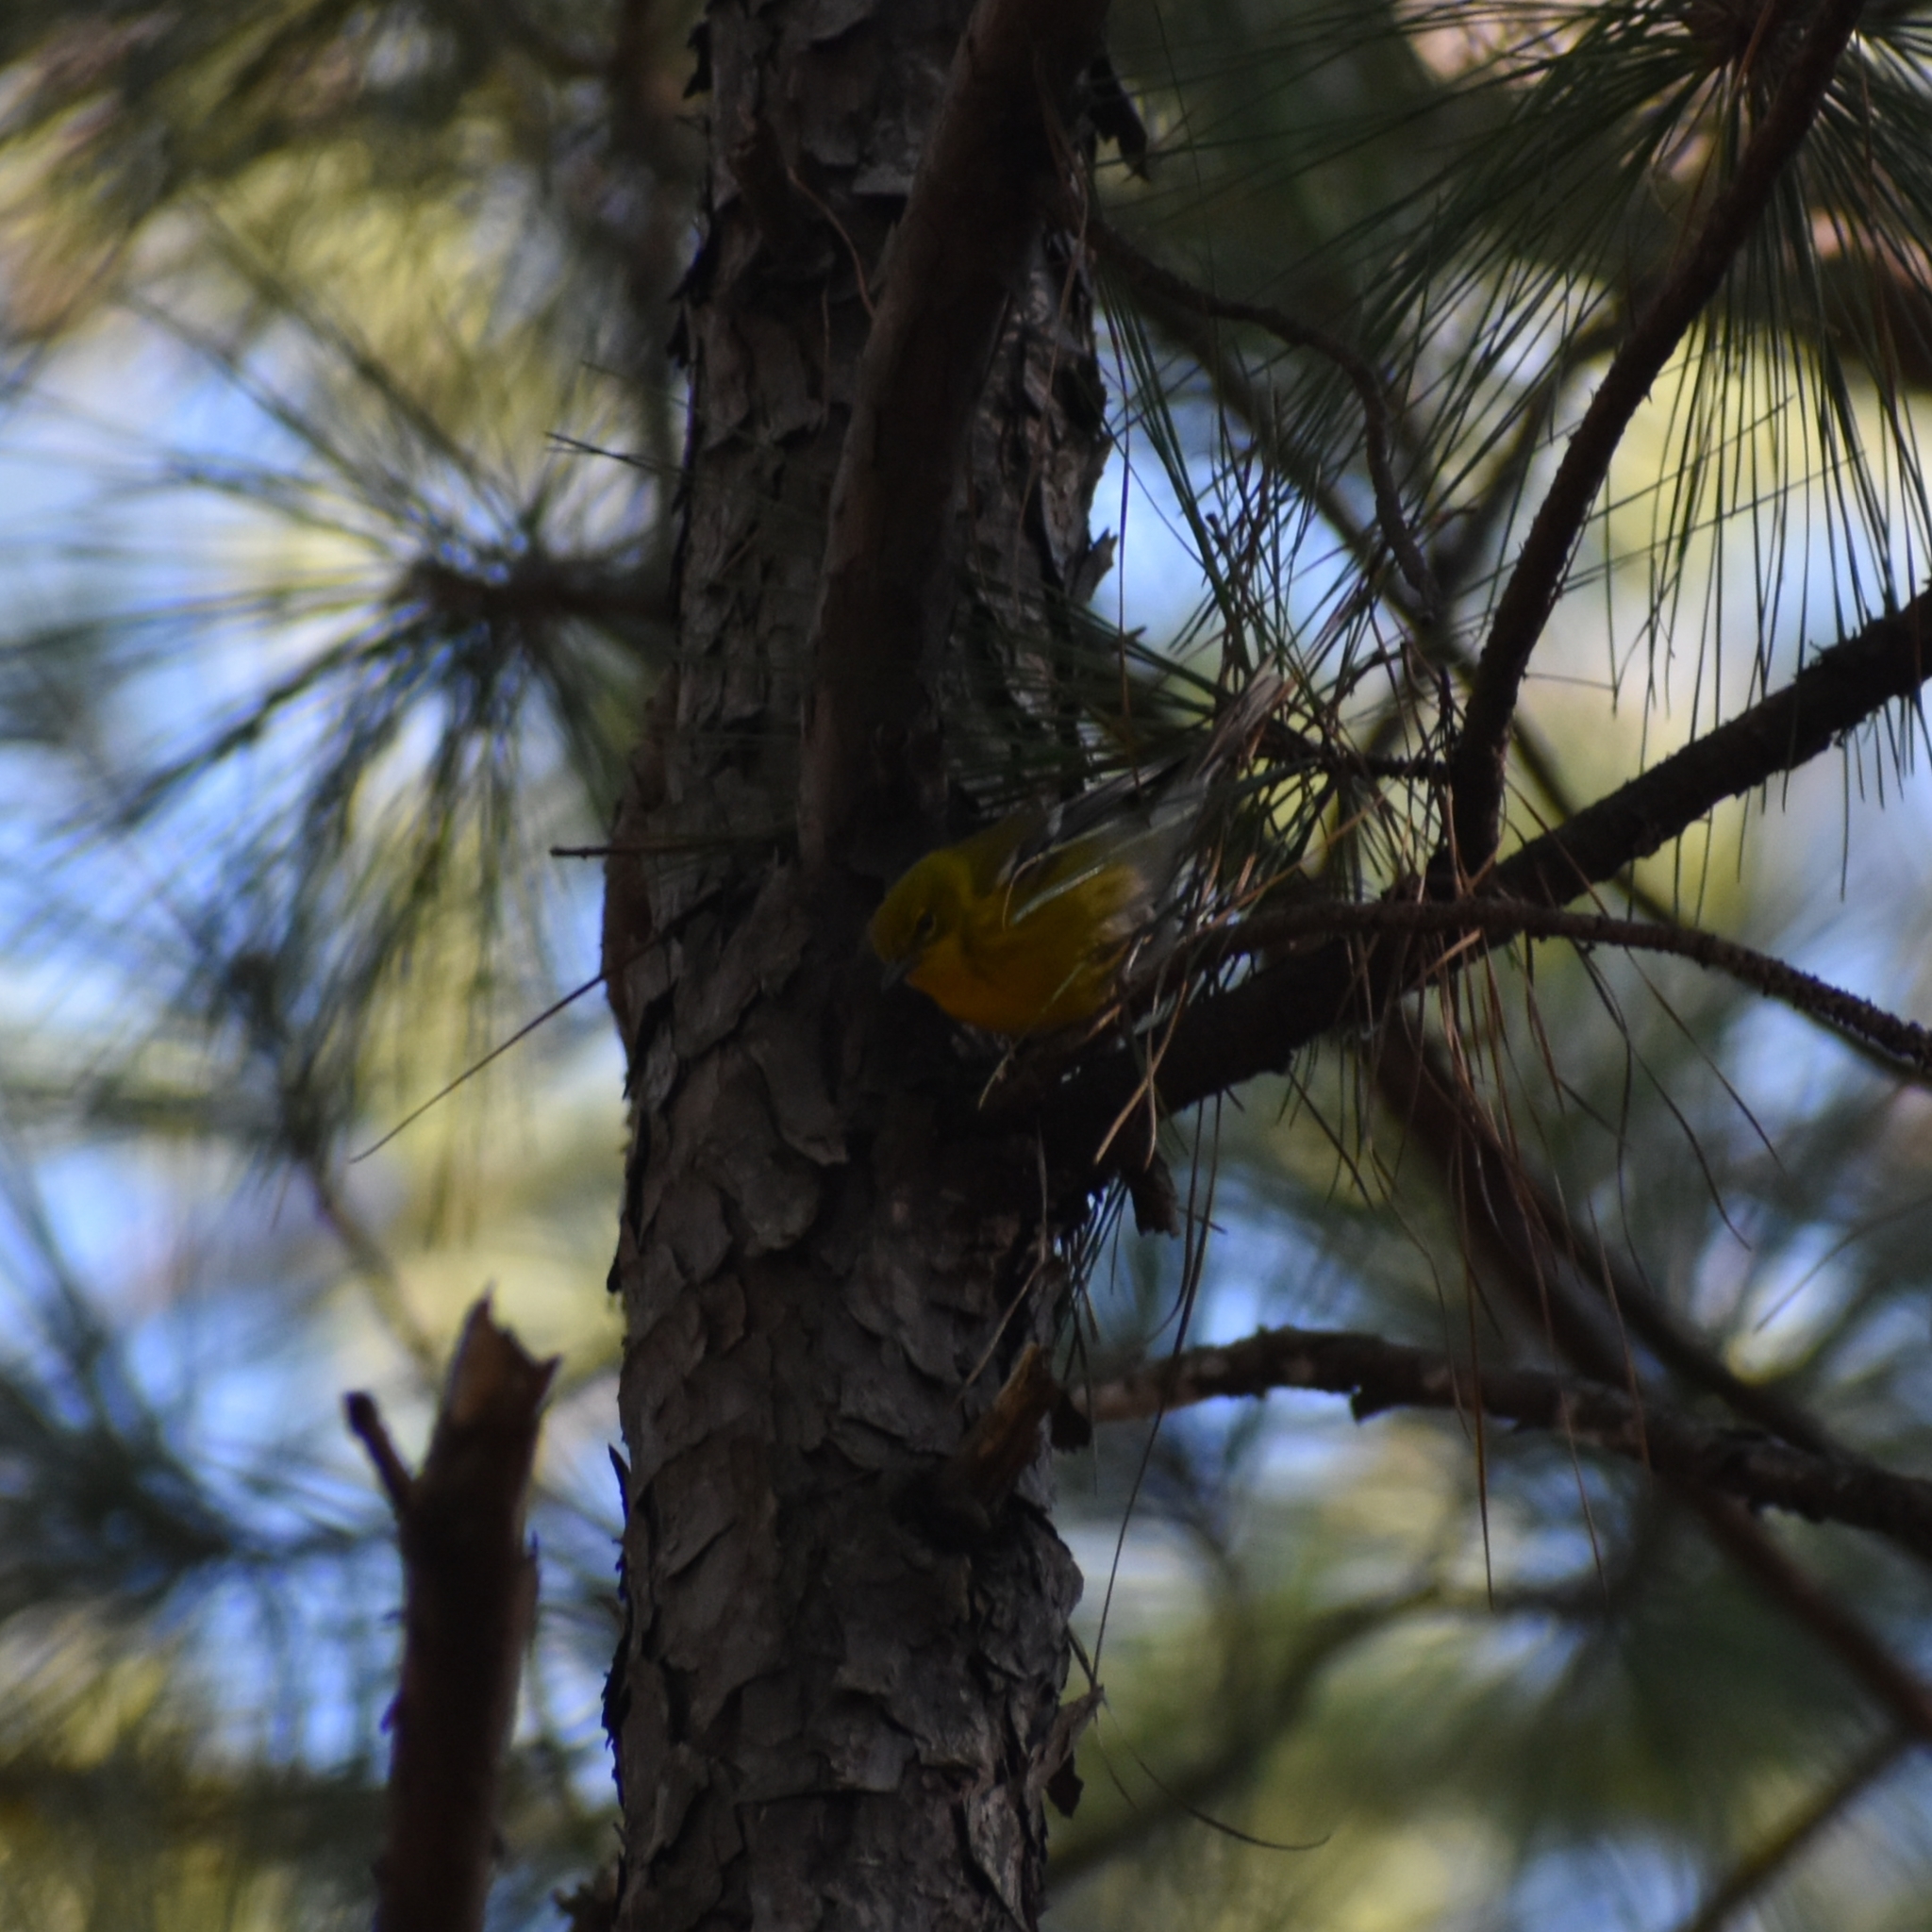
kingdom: Animalia
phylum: Chordata
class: Aves
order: Passeriformes
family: Parulidae
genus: Setophaga
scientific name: Setophaga pinus
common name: Pine warbler
